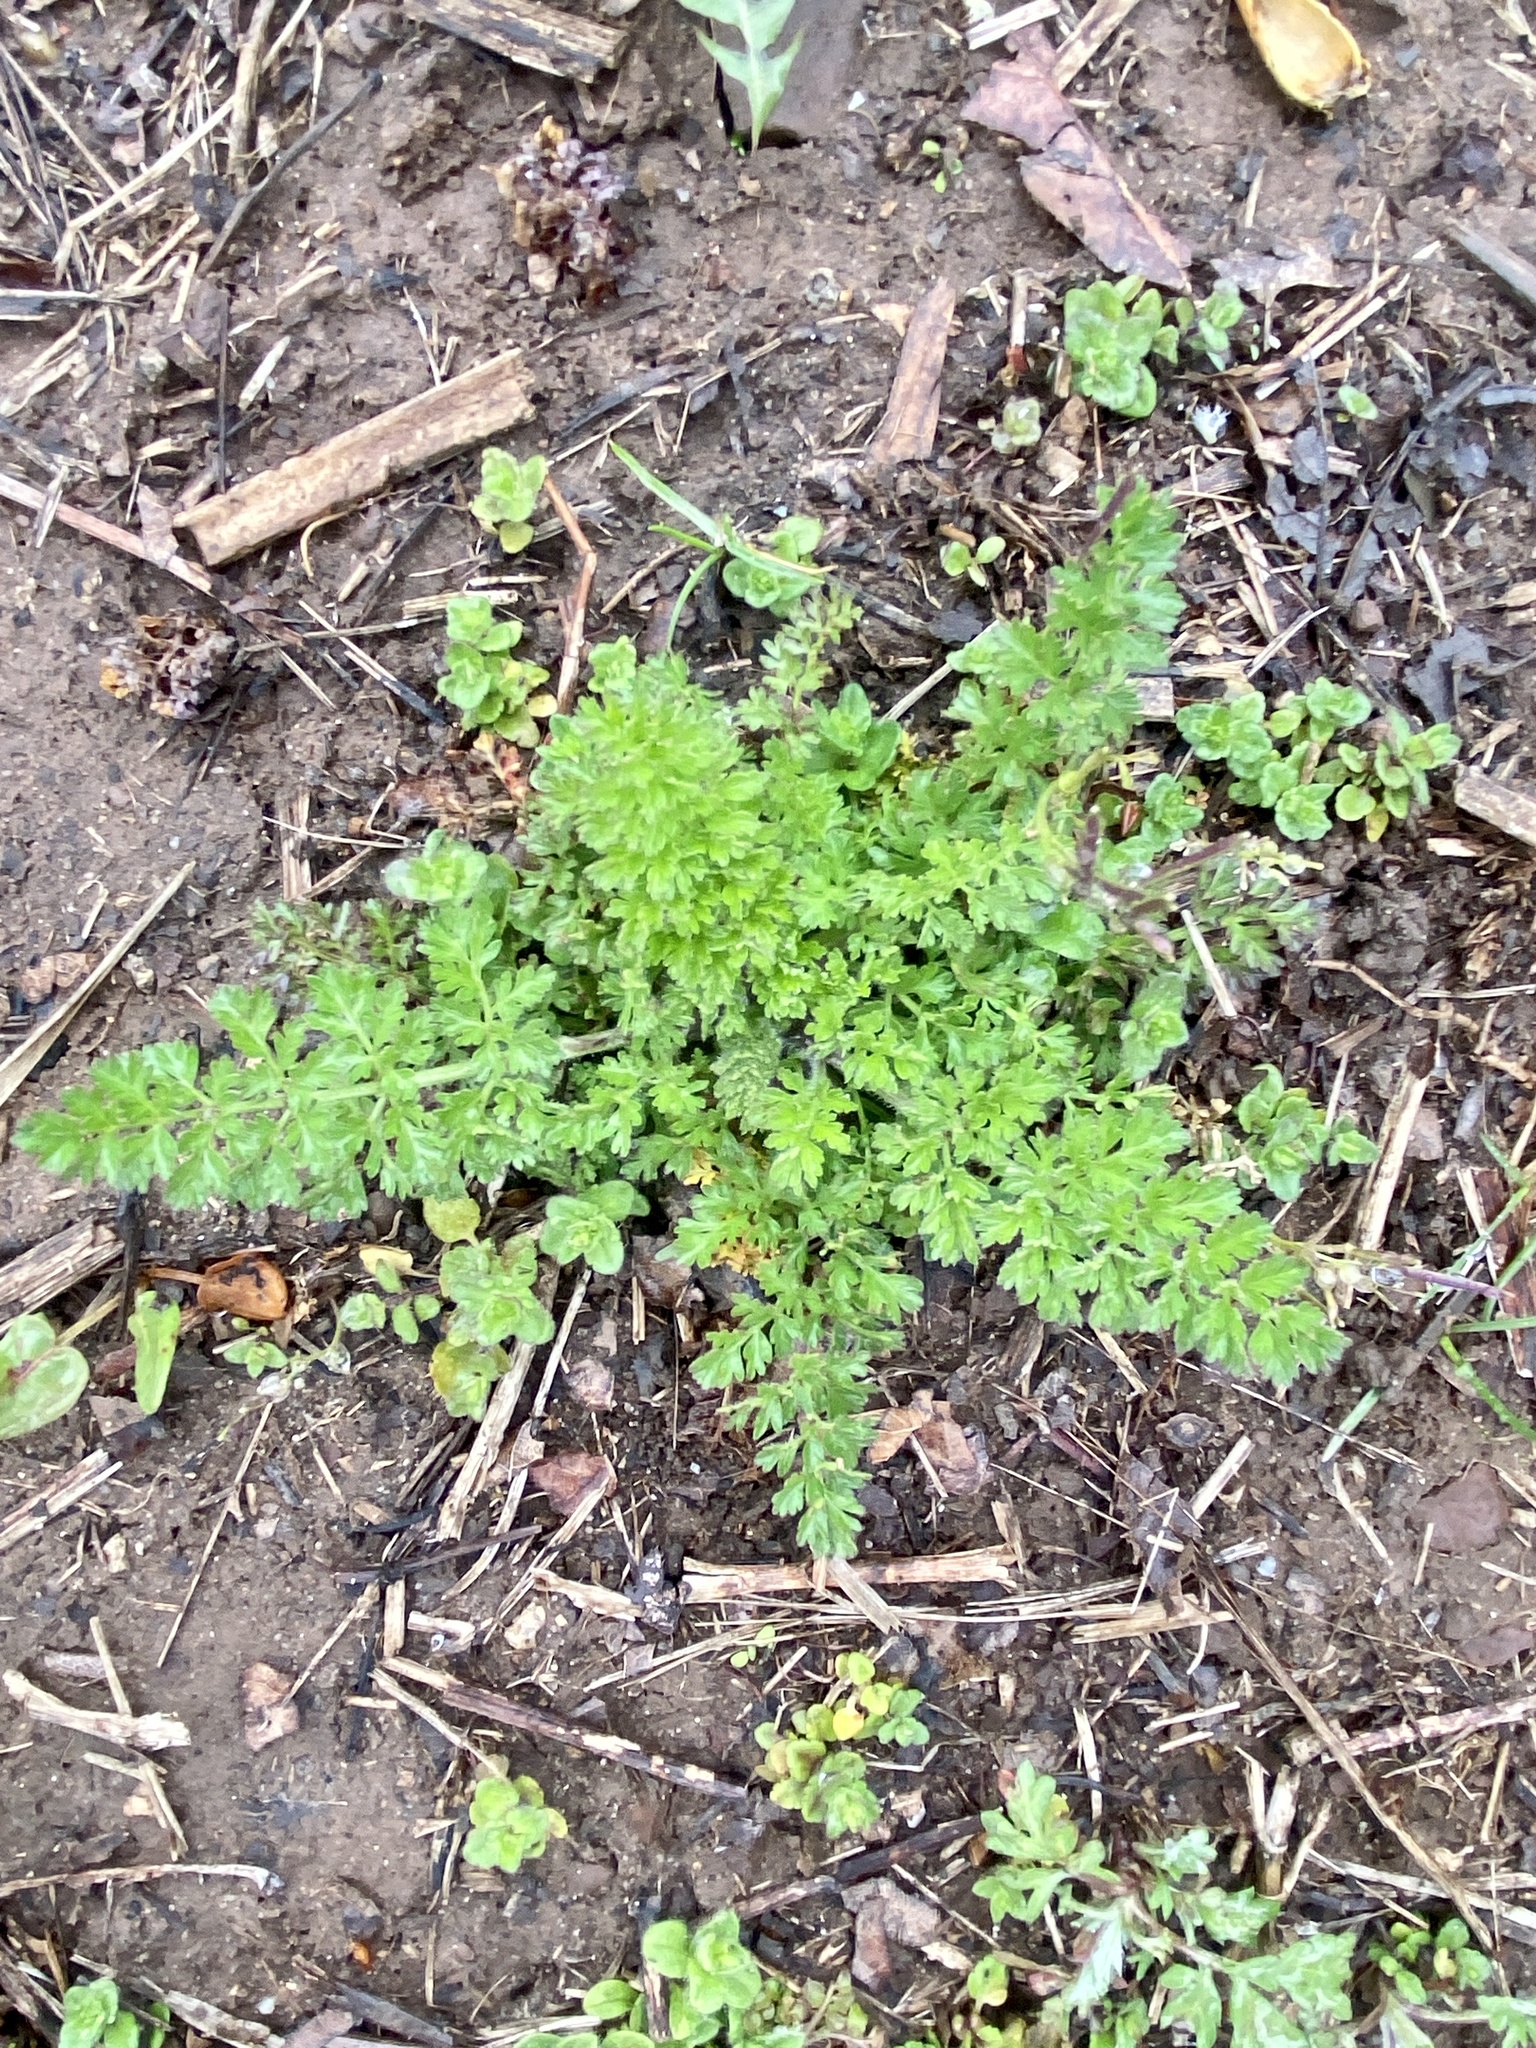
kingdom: Plantae
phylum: Tracheophyta
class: Magnoliopsida
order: Apiales
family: Apiaceae
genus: Daucus
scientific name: Daucus carota
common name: Wild carrot
